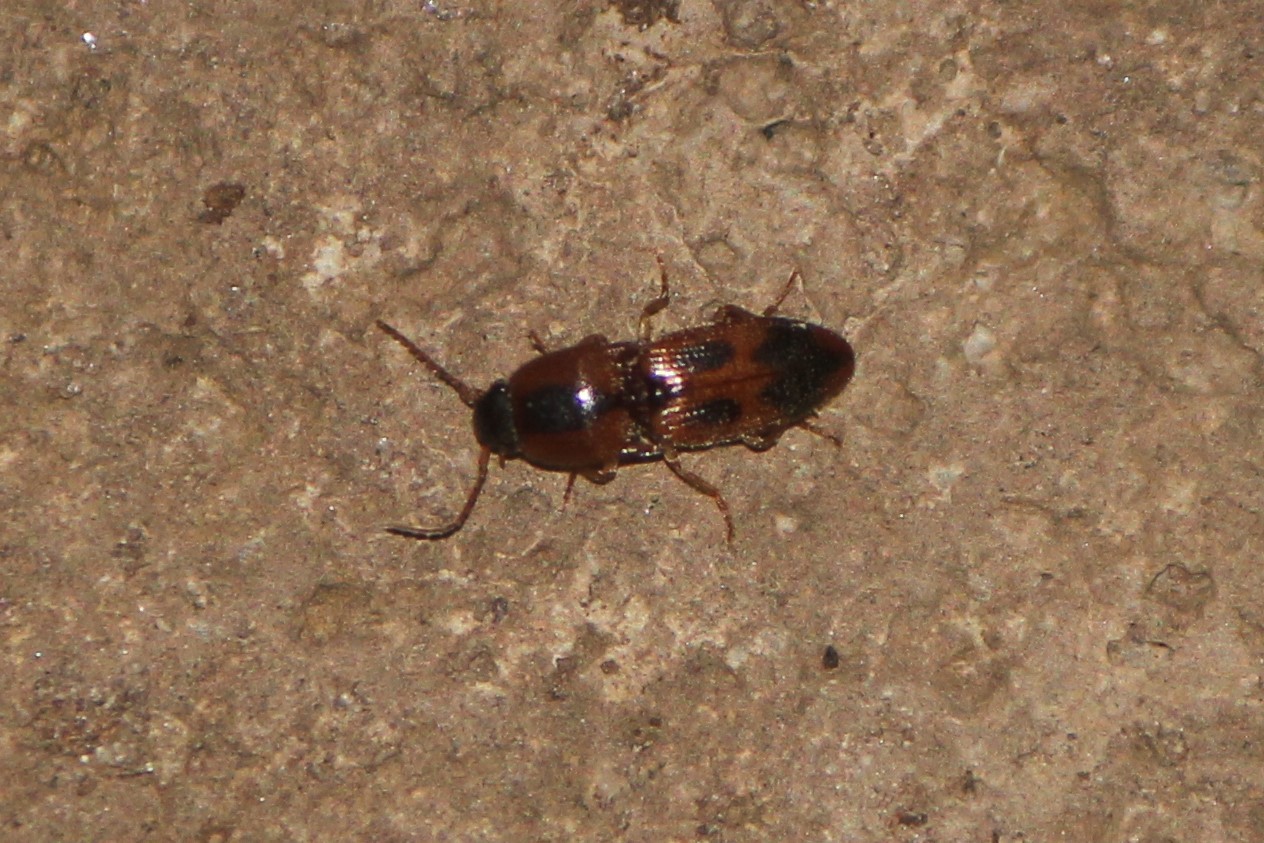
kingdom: Animalia
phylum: Arthropoda
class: Insecta
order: Coleoptera
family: Elateridae
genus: Aeolus
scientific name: Aeolus mellillus
